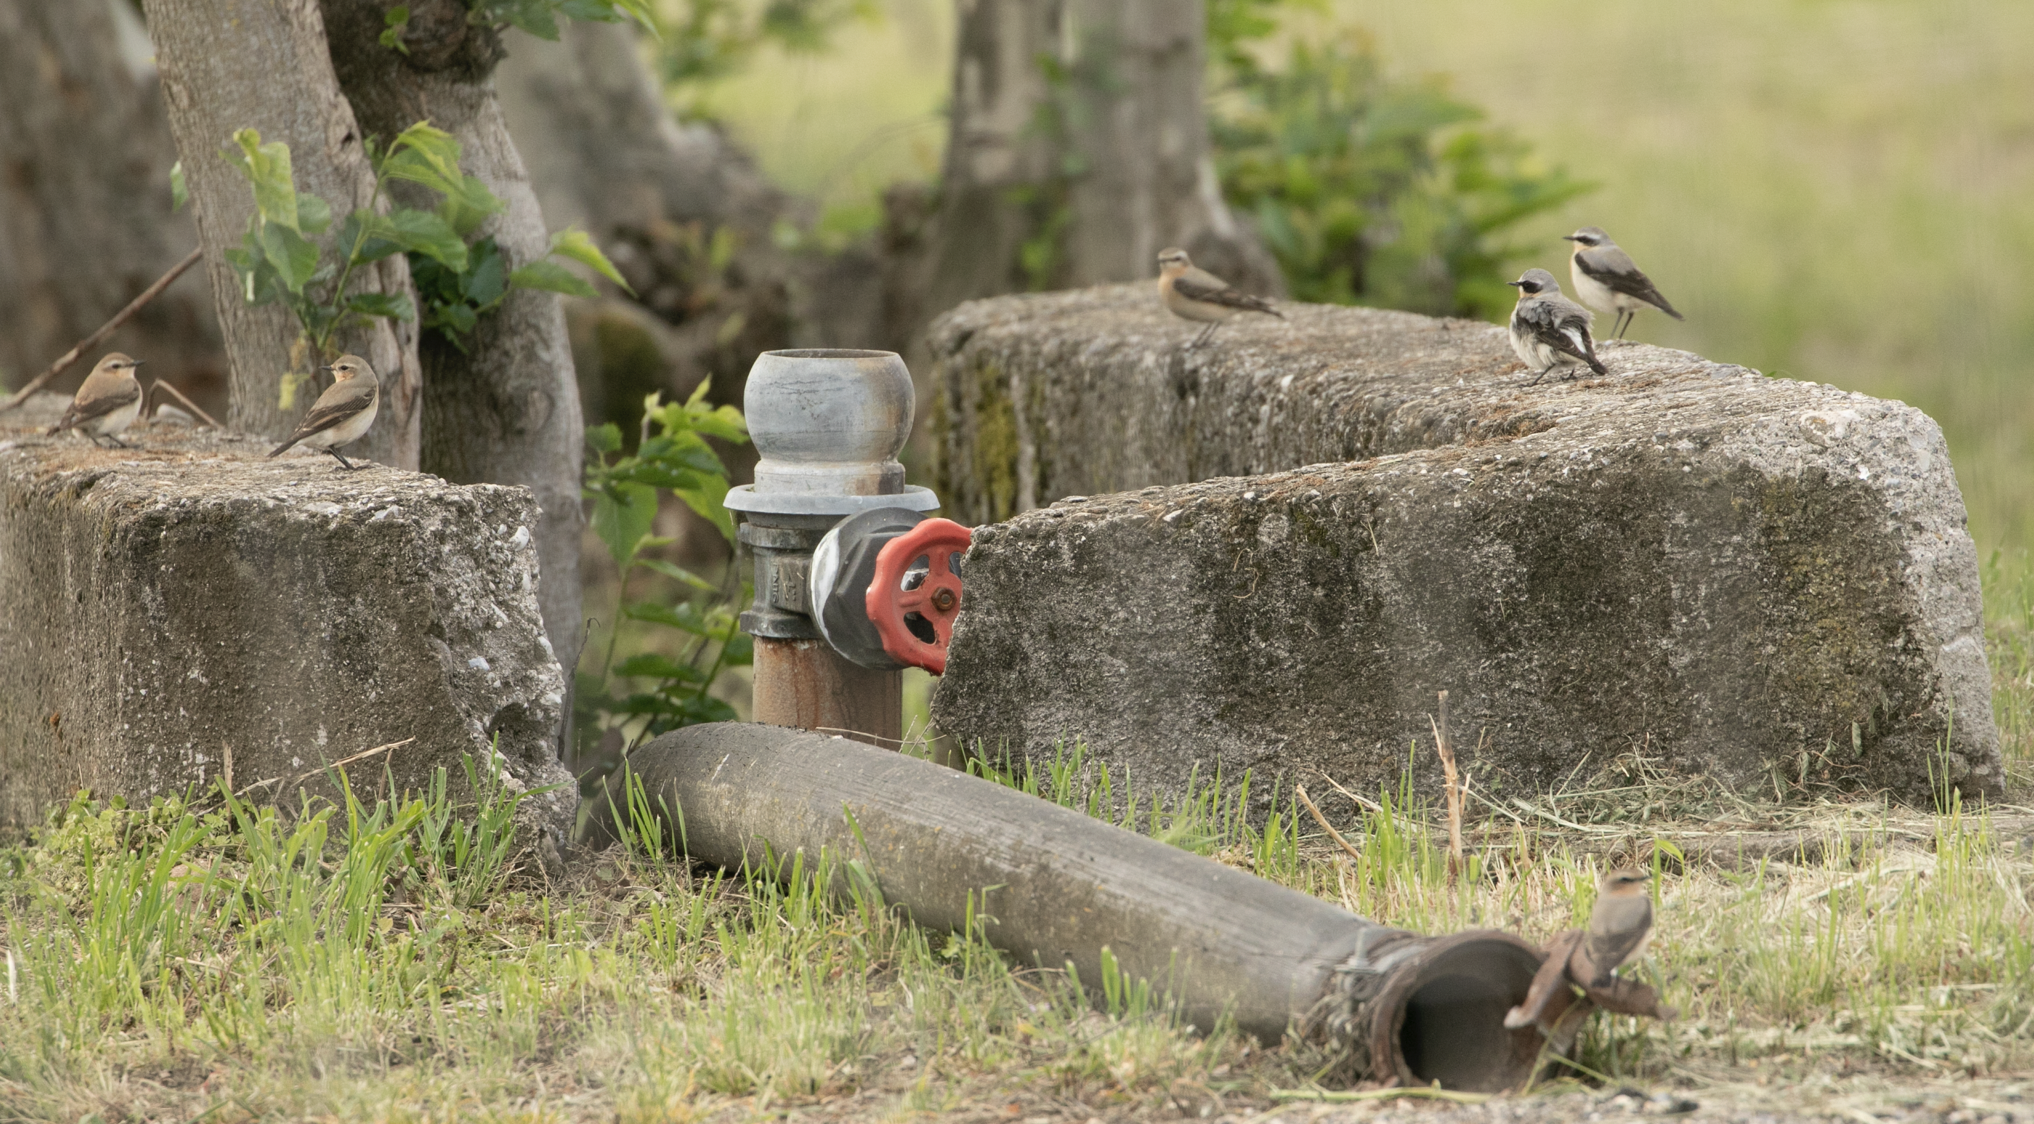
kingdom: Animalia
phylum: Chordata
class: Aves
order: Passeriformes
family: Muscicapidae
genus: Oenanthe
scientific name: Oenanthe oenanthe
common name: Northern wheatear
